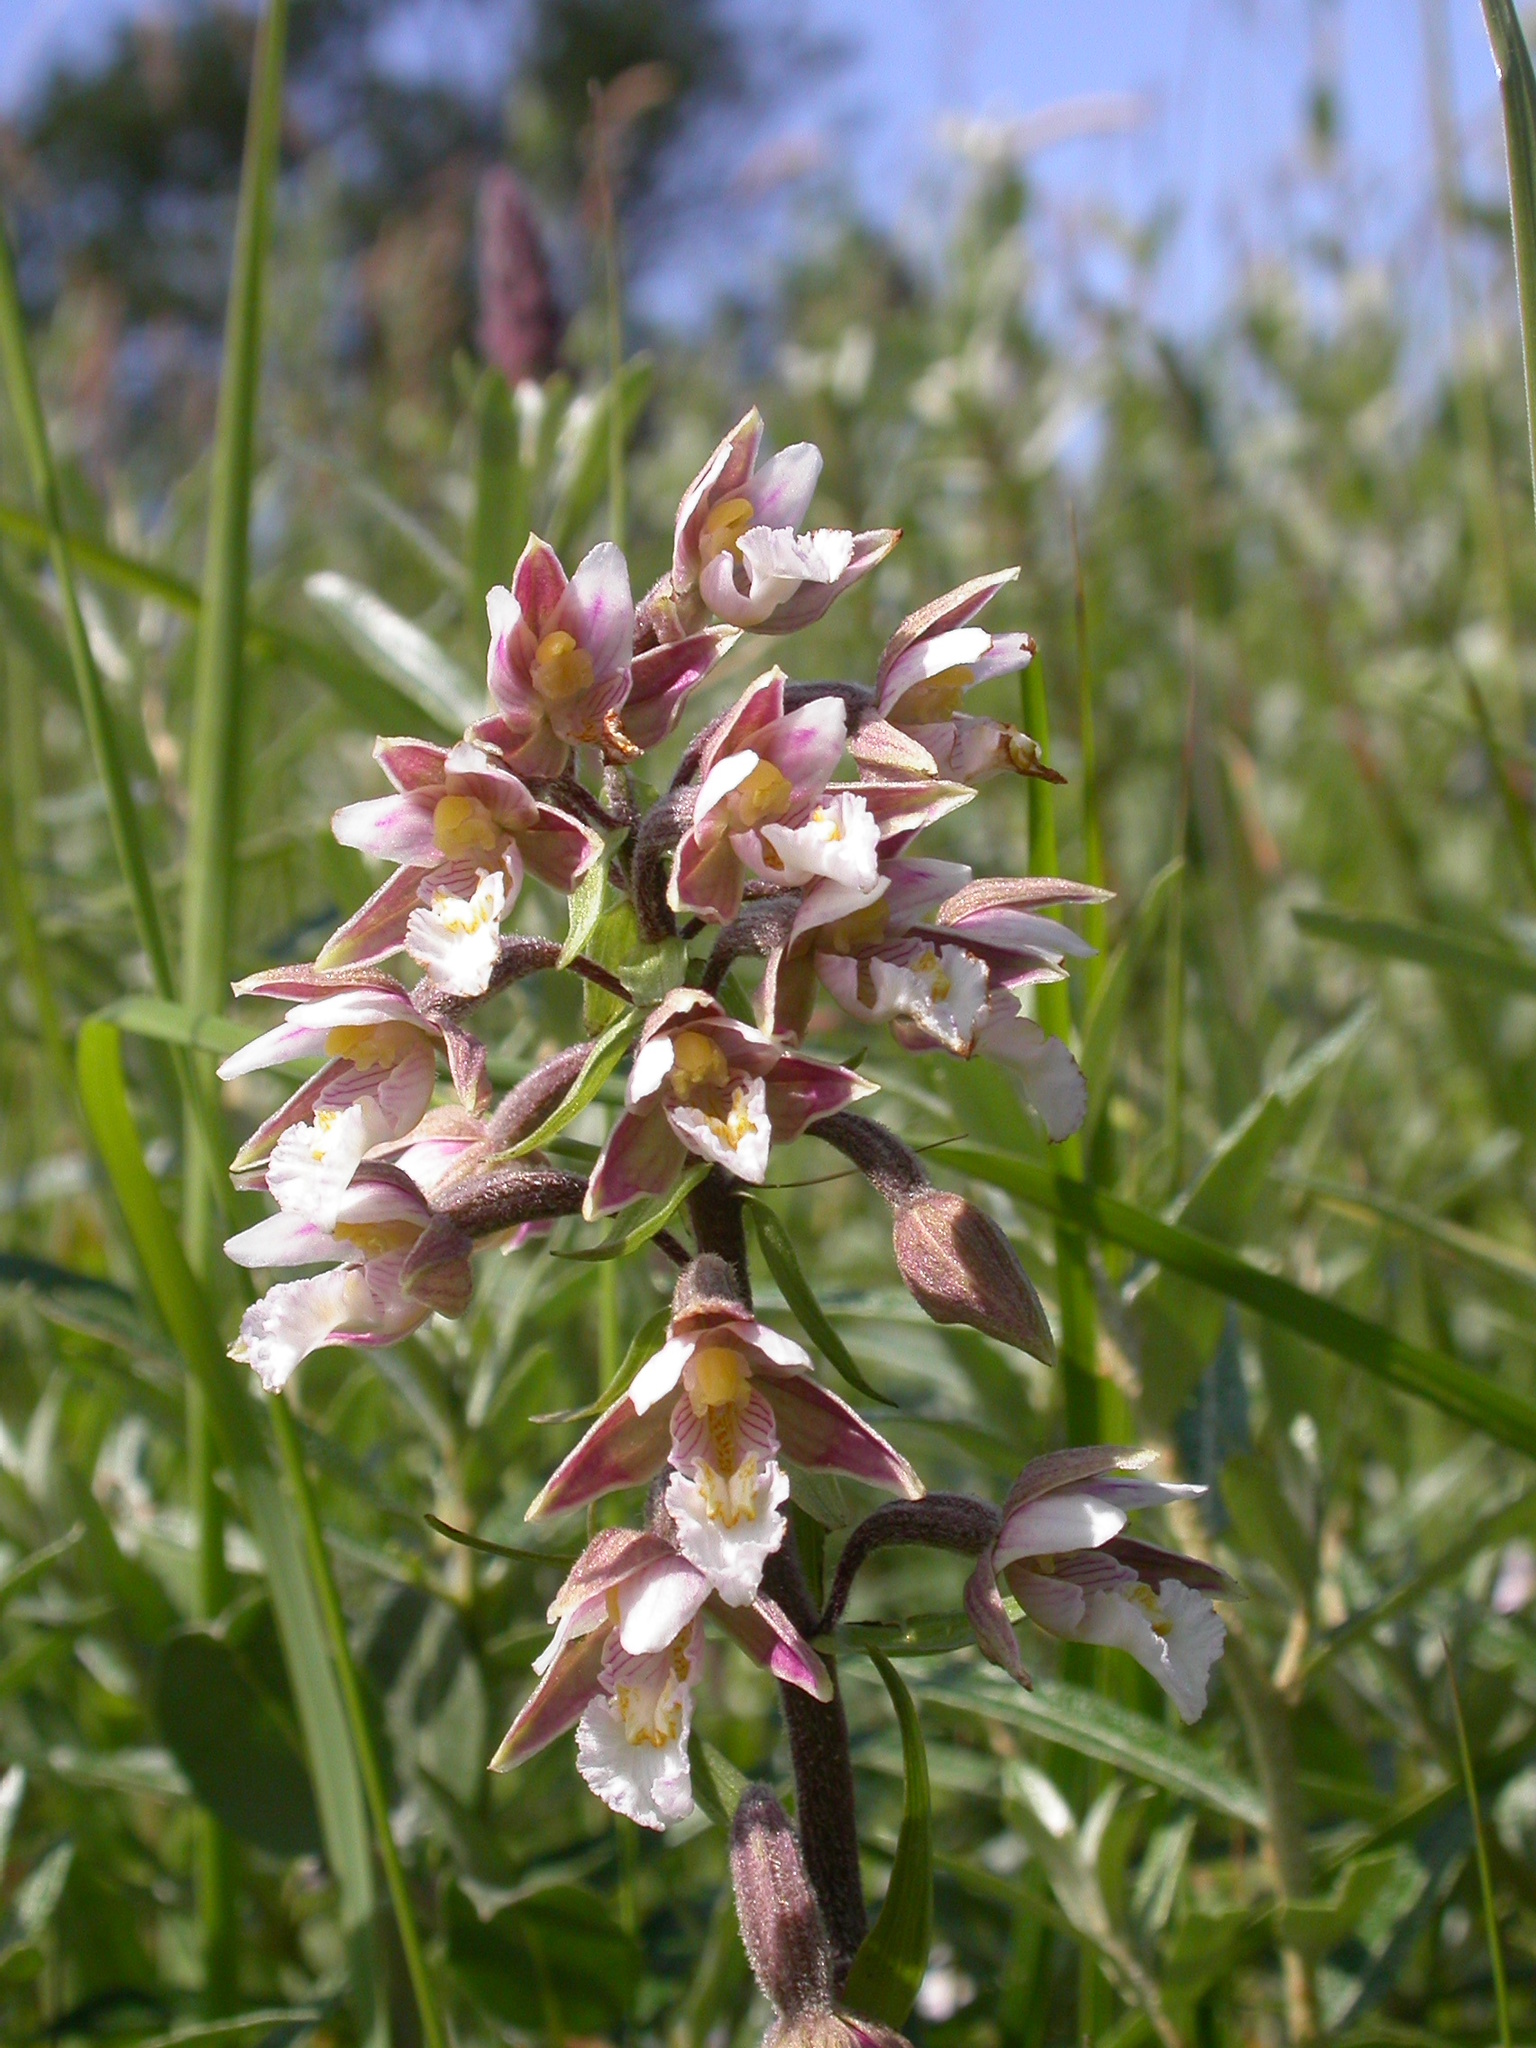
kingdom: Plantae
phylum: Tracheophyta
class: Liliopsida
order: Asparagales
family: Orchidaceae
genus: Epipactis
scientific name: Epipactis palustris
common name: Marsh helleborine
